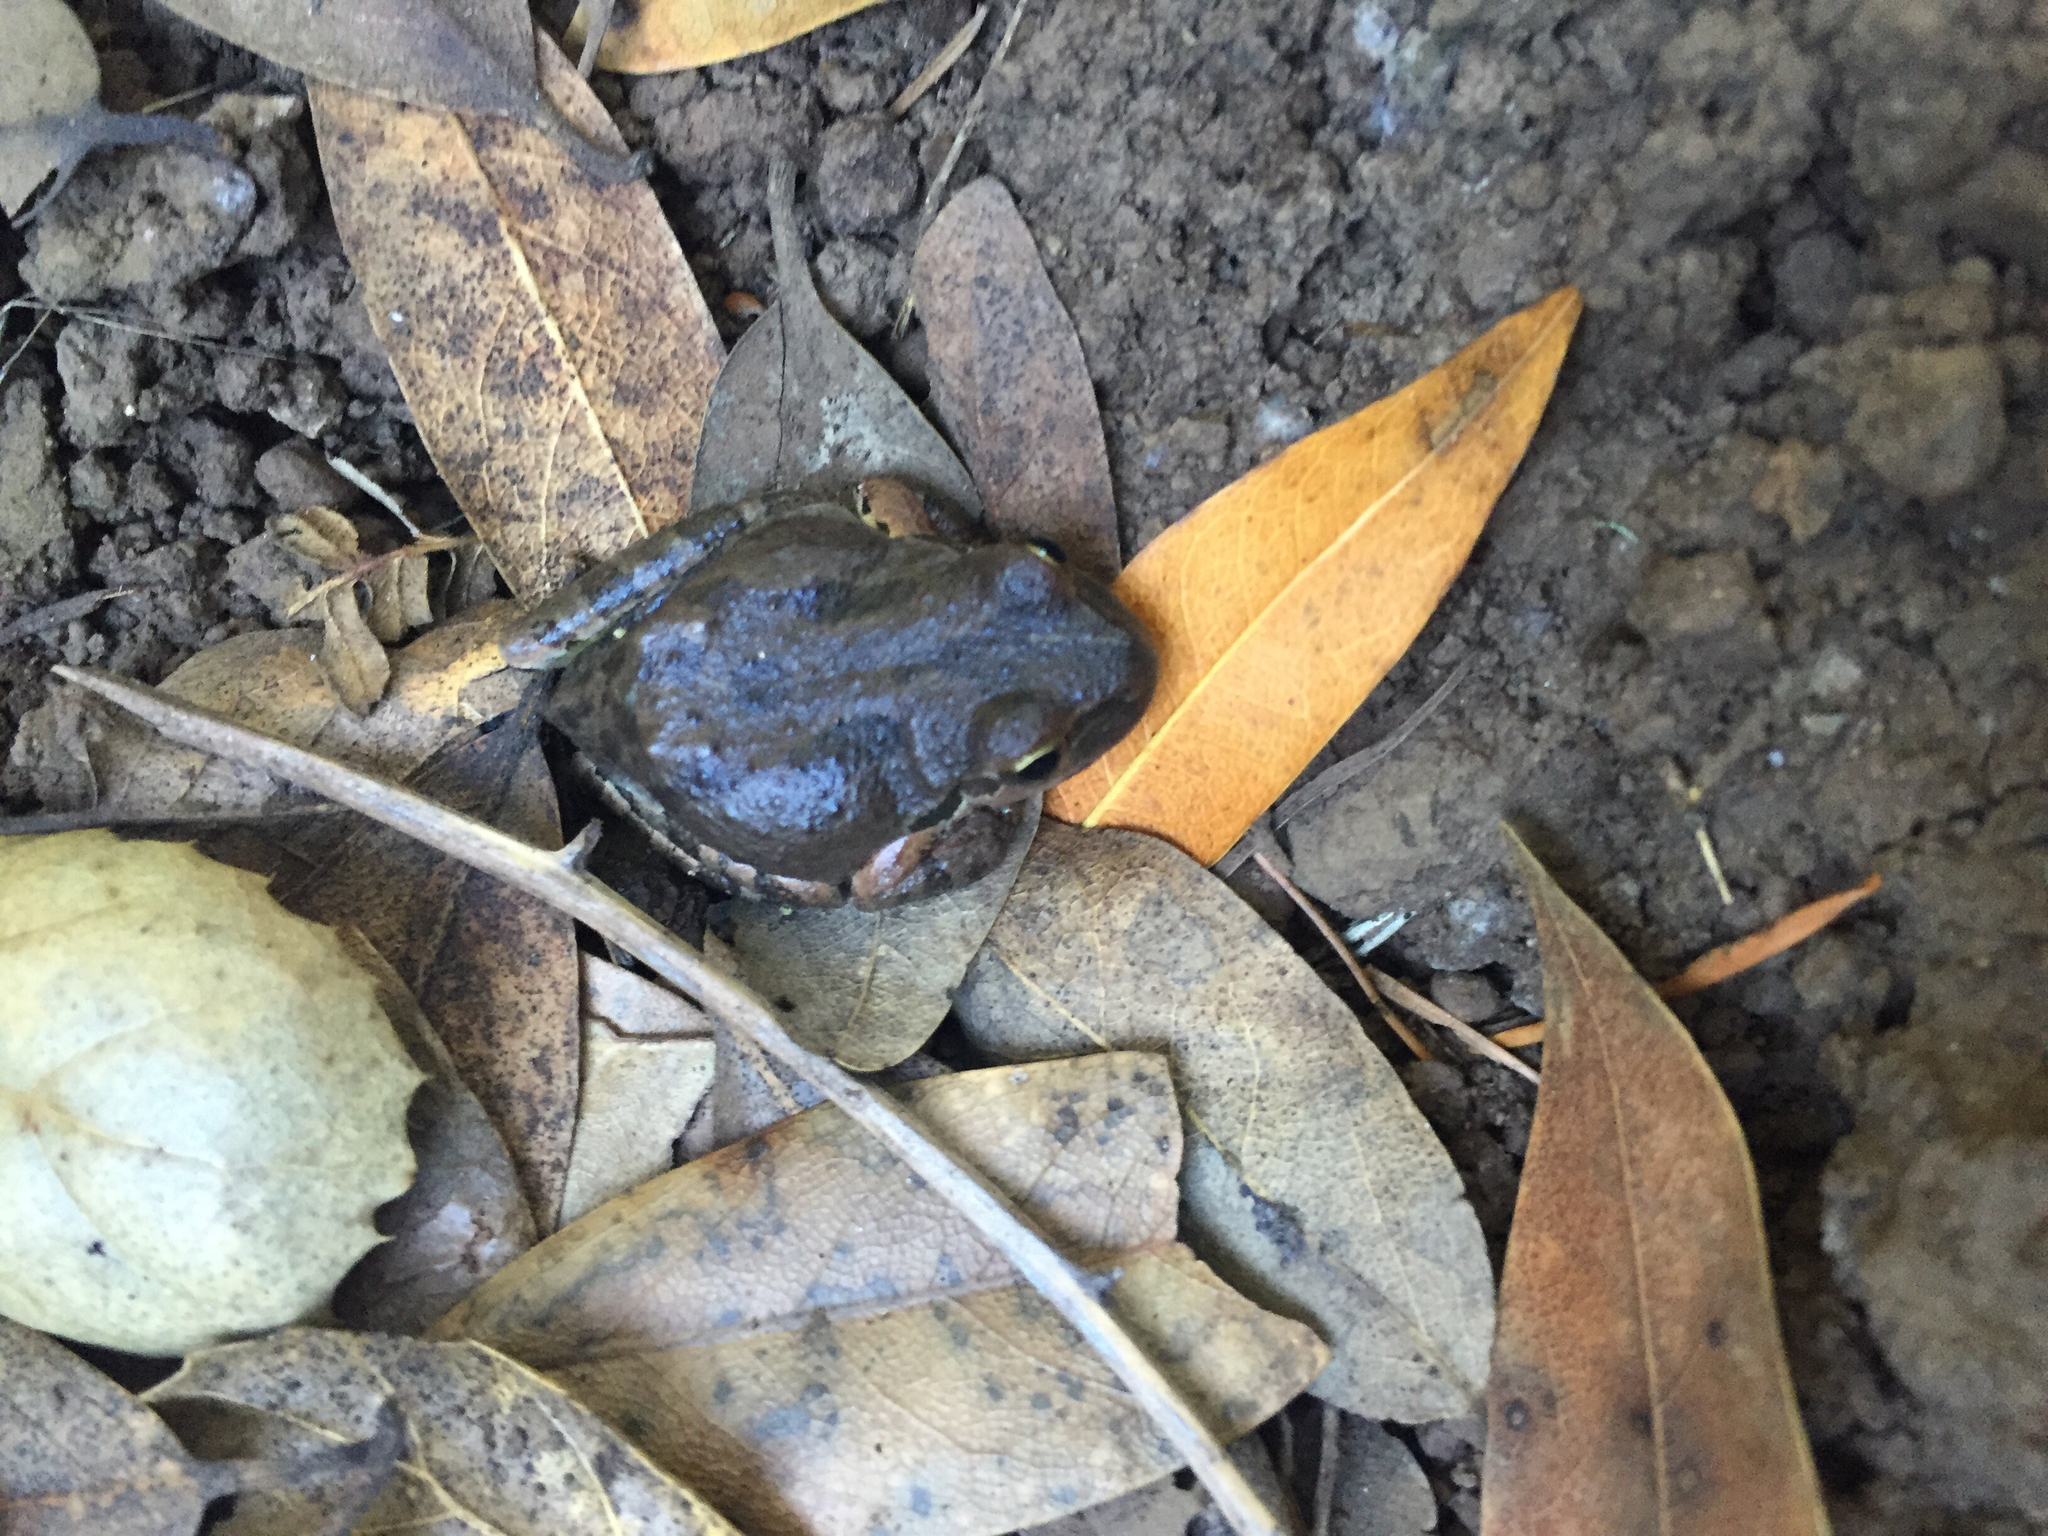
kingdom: Animalia
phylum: Chordata
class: Amphibia
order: Anura
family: Hylidae
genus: Pseudacris
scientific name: Pseudacris regilla
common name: Pacific chorus frog
